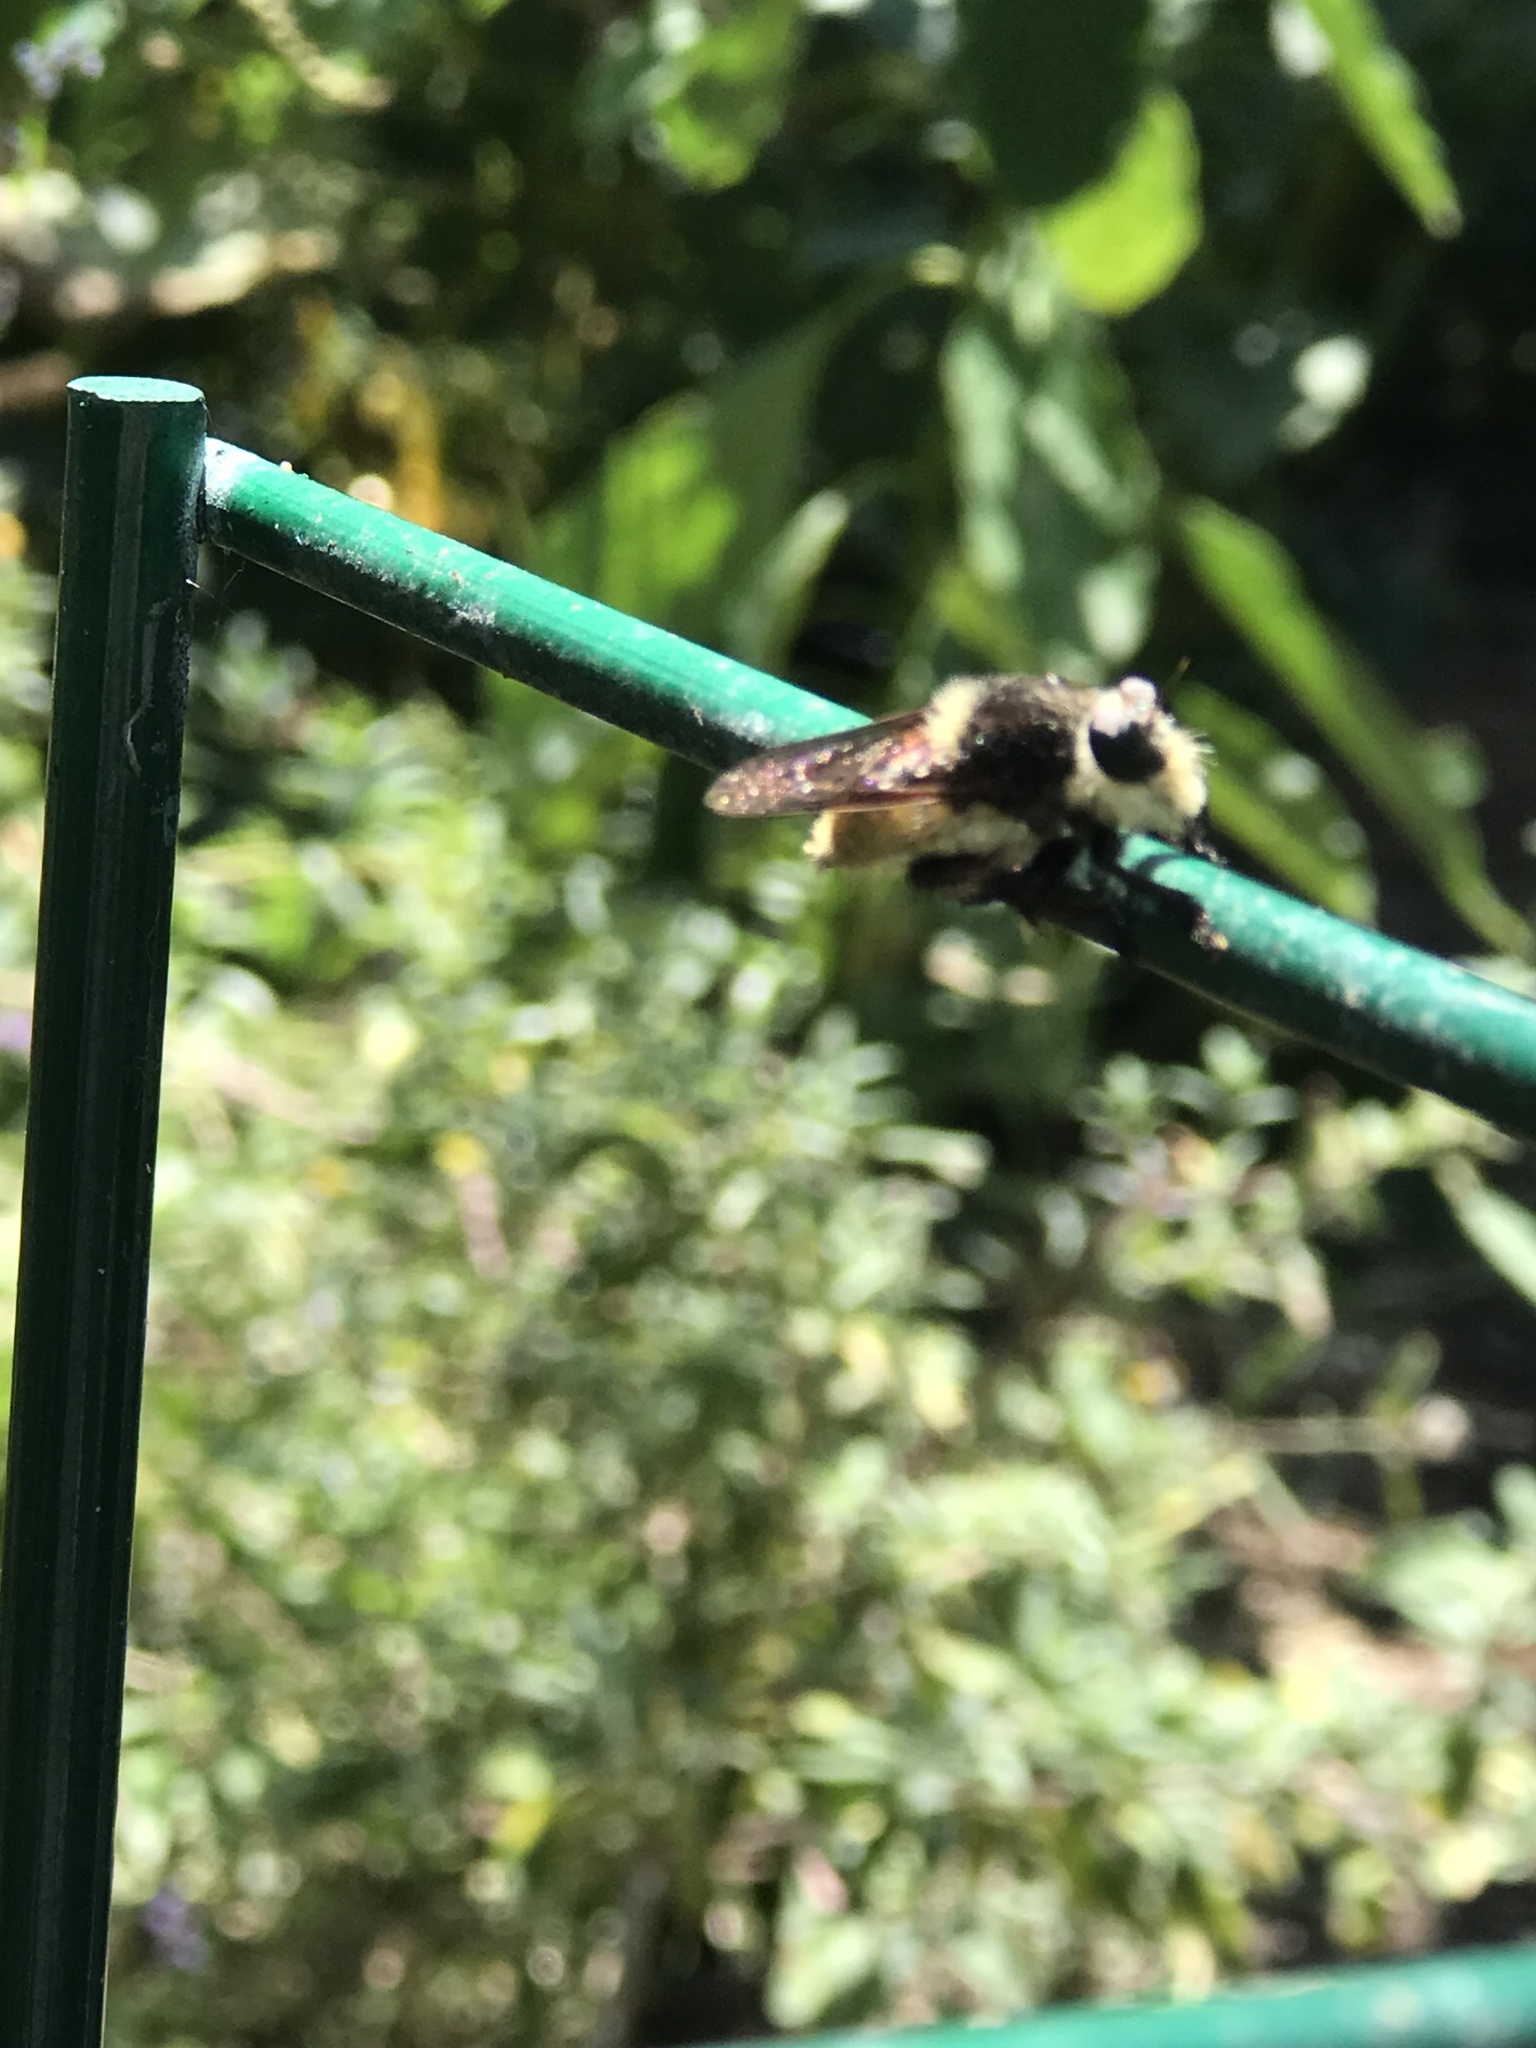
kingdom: Animalia
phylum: Arthropoda
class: Insecta
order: Diptera
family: Asilidae
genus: Mallophora
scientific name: Mallophora fautrix
